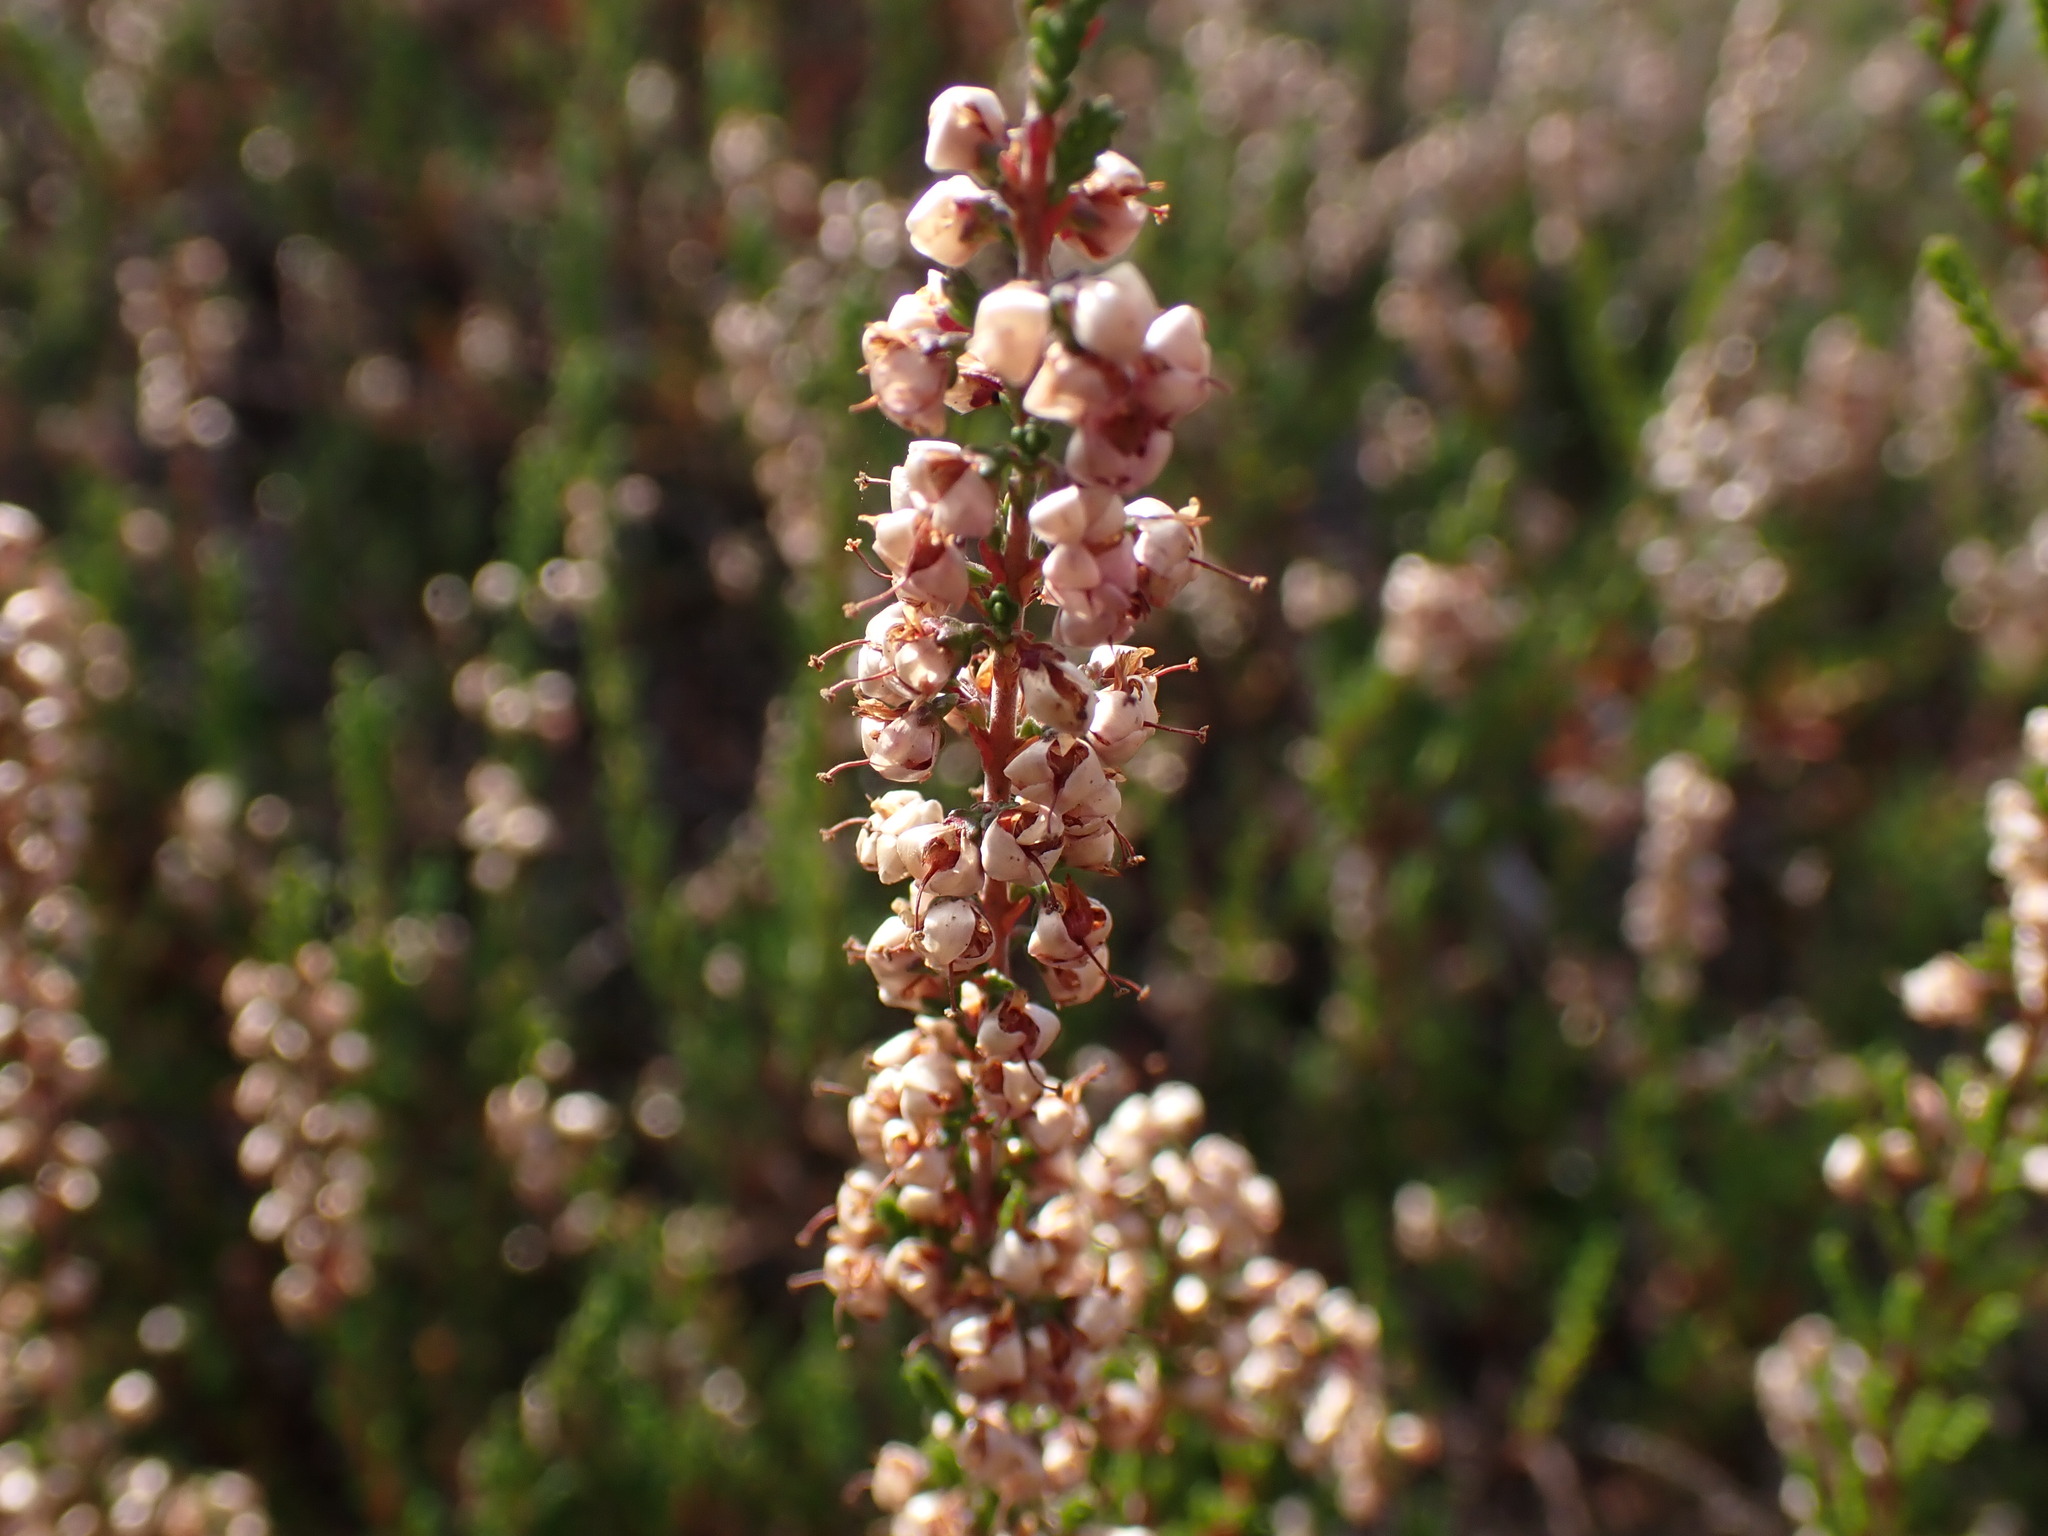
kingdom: Plantae
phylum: Tracheophyta
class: Magnoliopsida
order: Ericales
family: Ericaceae
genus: Calluna
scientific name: Calluna vulgaris
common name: Heather
